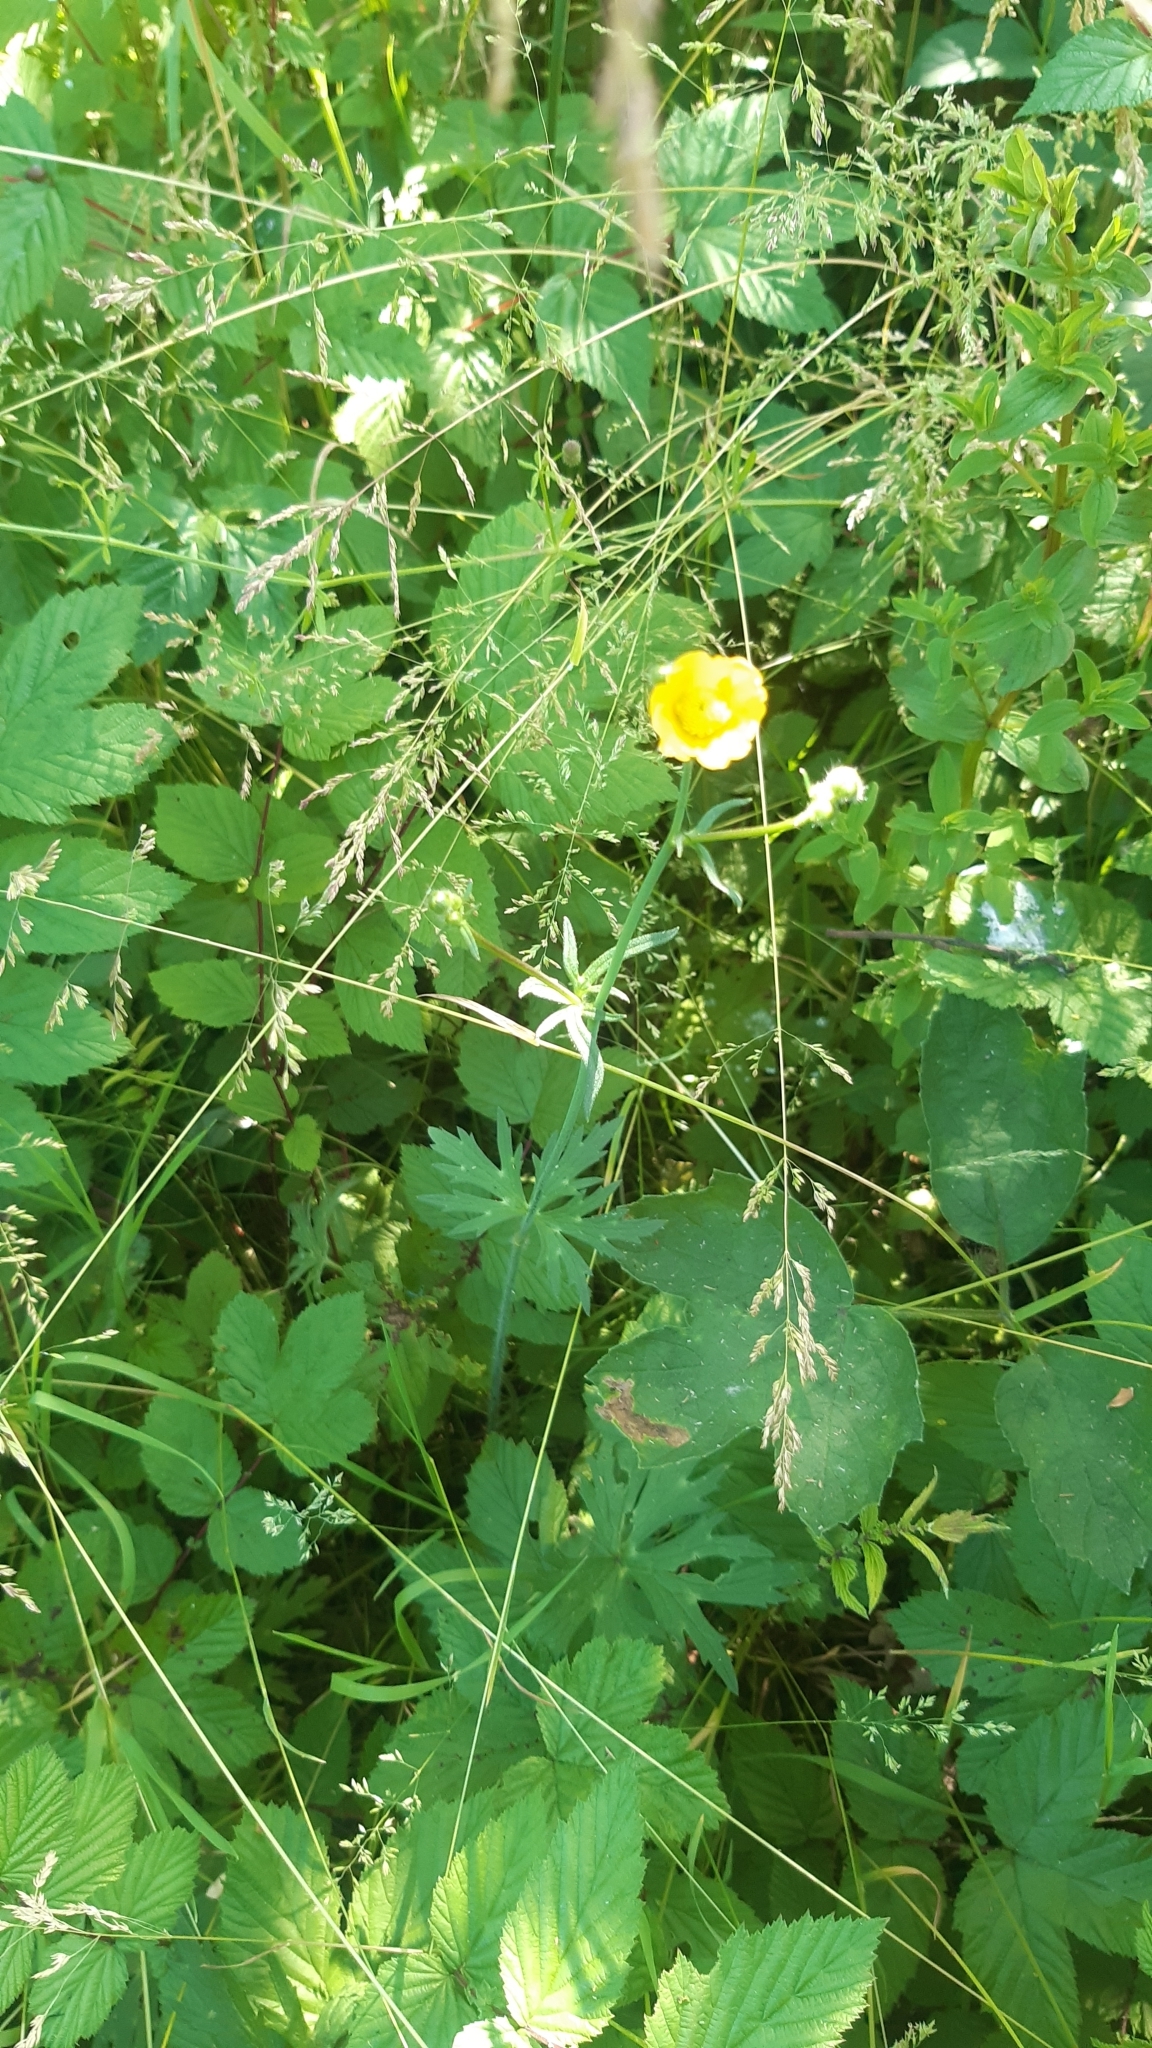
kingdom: Plantae
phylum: Tracheophyta
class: Magnoliopsida
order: Ranunculales
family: Ranunculaceae
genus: Ranunculus
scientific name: Ranunculus acris
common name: Meadow buttercup
